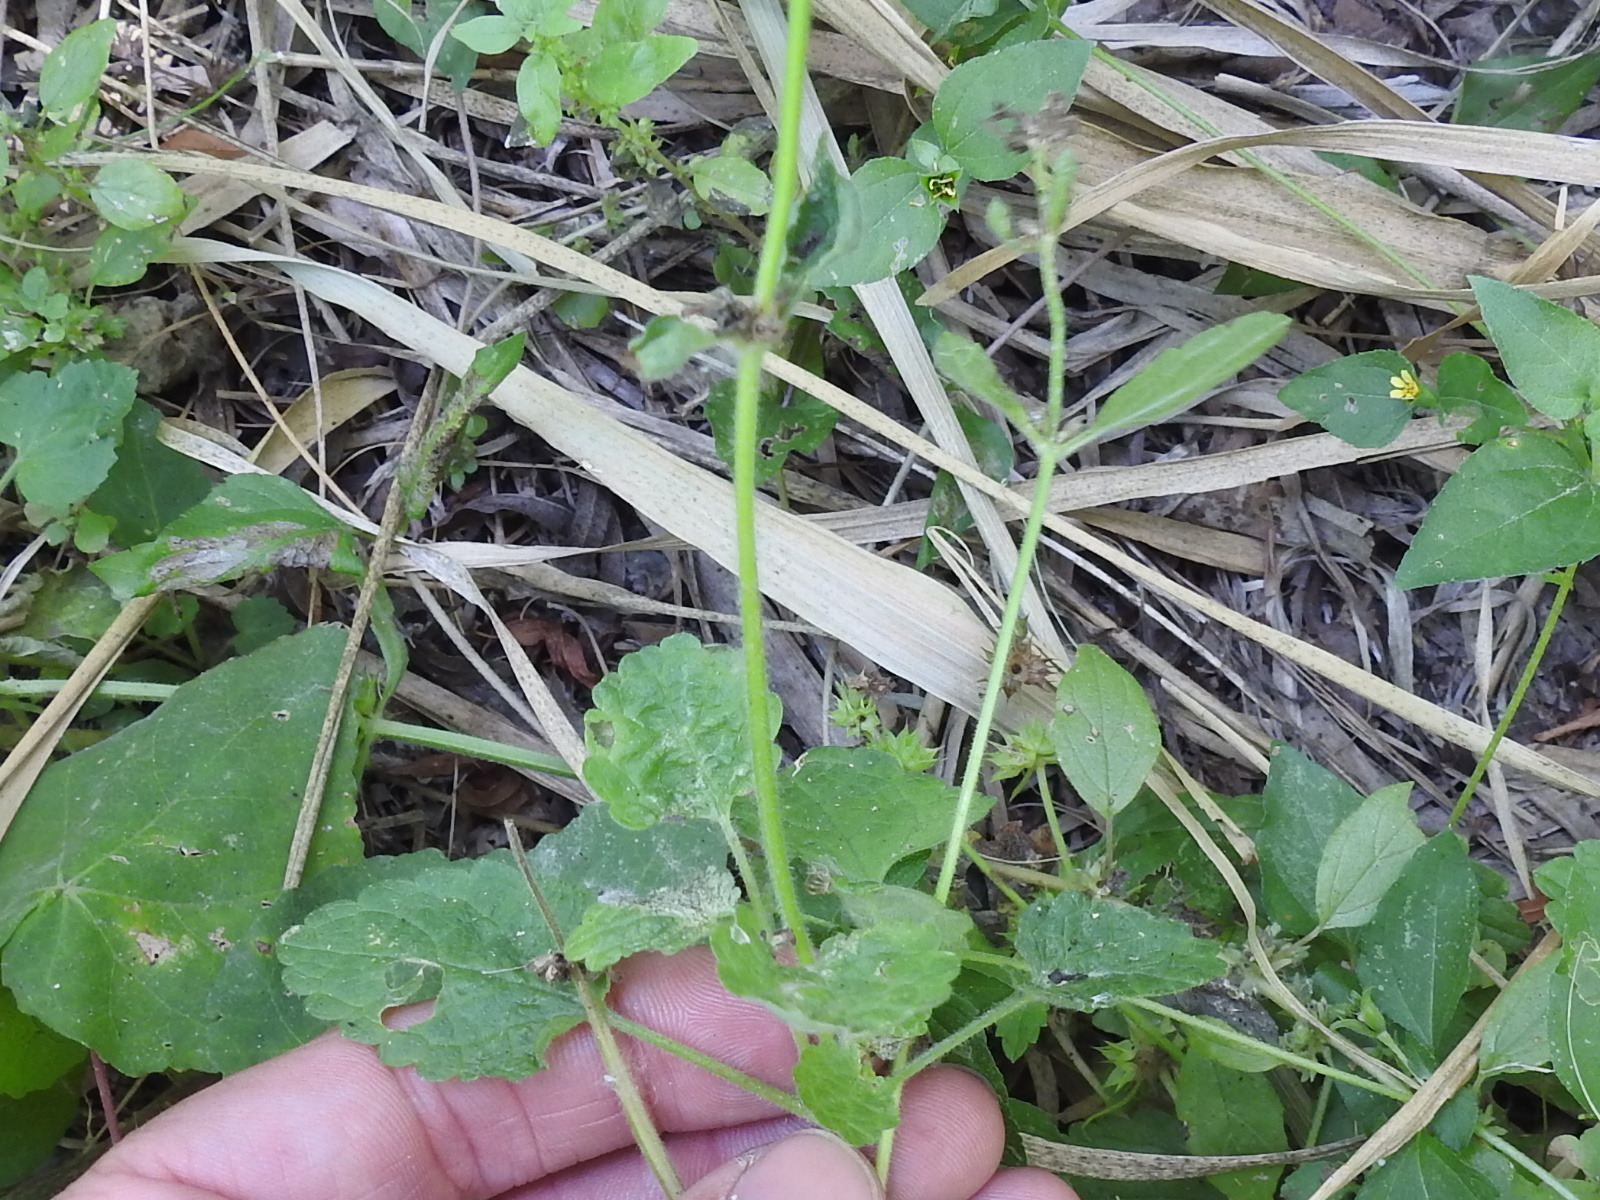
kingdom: Plantae
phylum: Tracheophyta
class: Magnoliopsida
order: Lamiales
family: Lamiaceae
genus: Stachys
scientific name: Stachys drummondii
